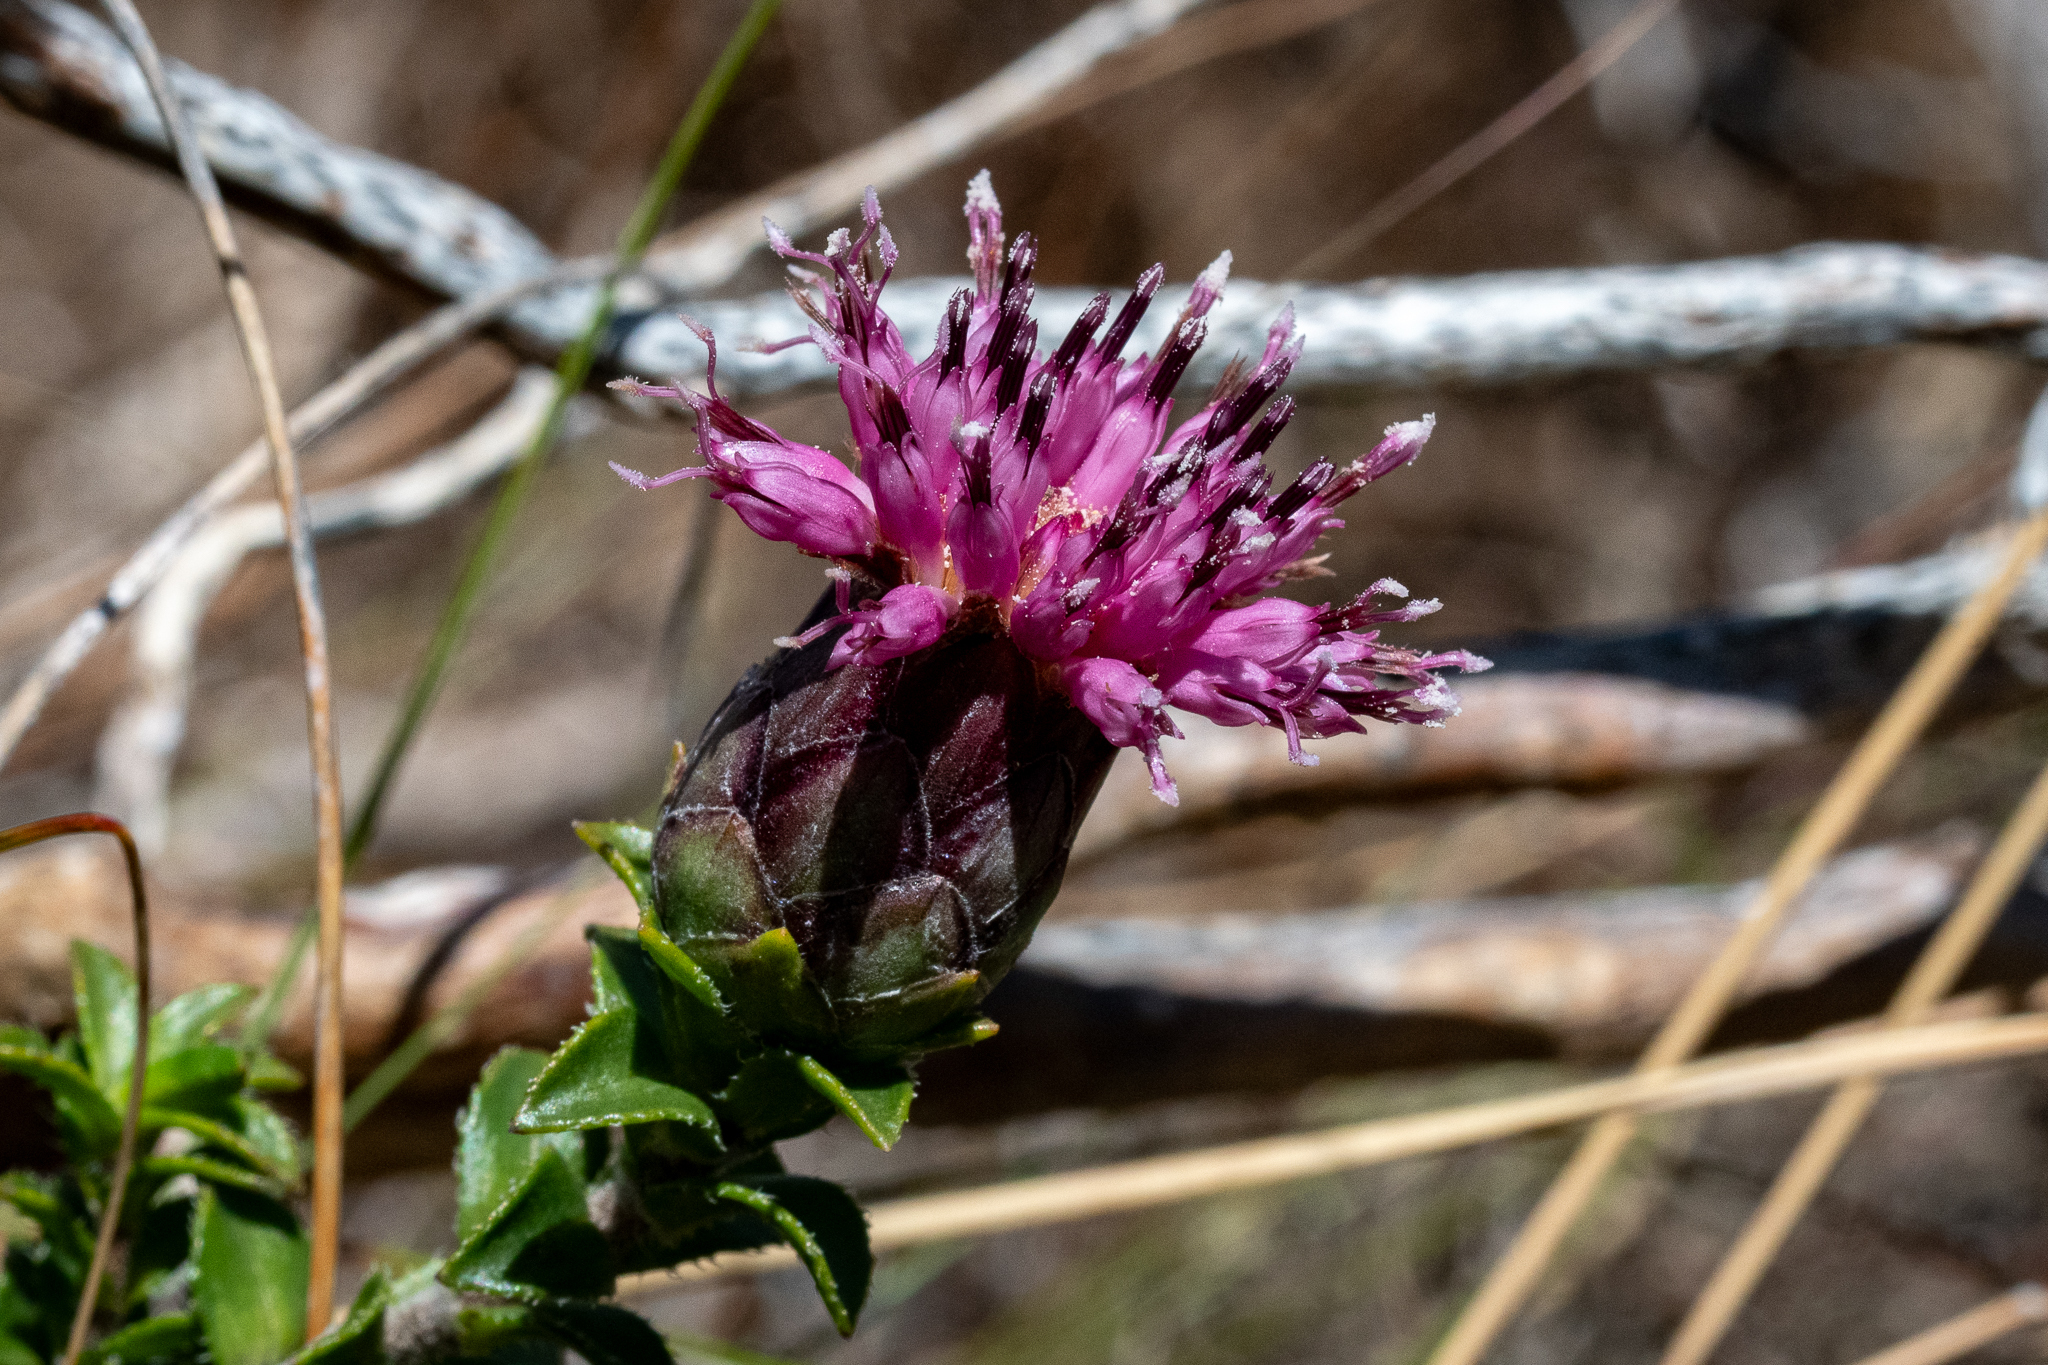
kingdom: Plantae
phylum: Tracheophyta
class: Magnoliopsida
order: Asterales
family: Asteraceae
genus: Pteronia
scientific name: Pteronia hirsuta
